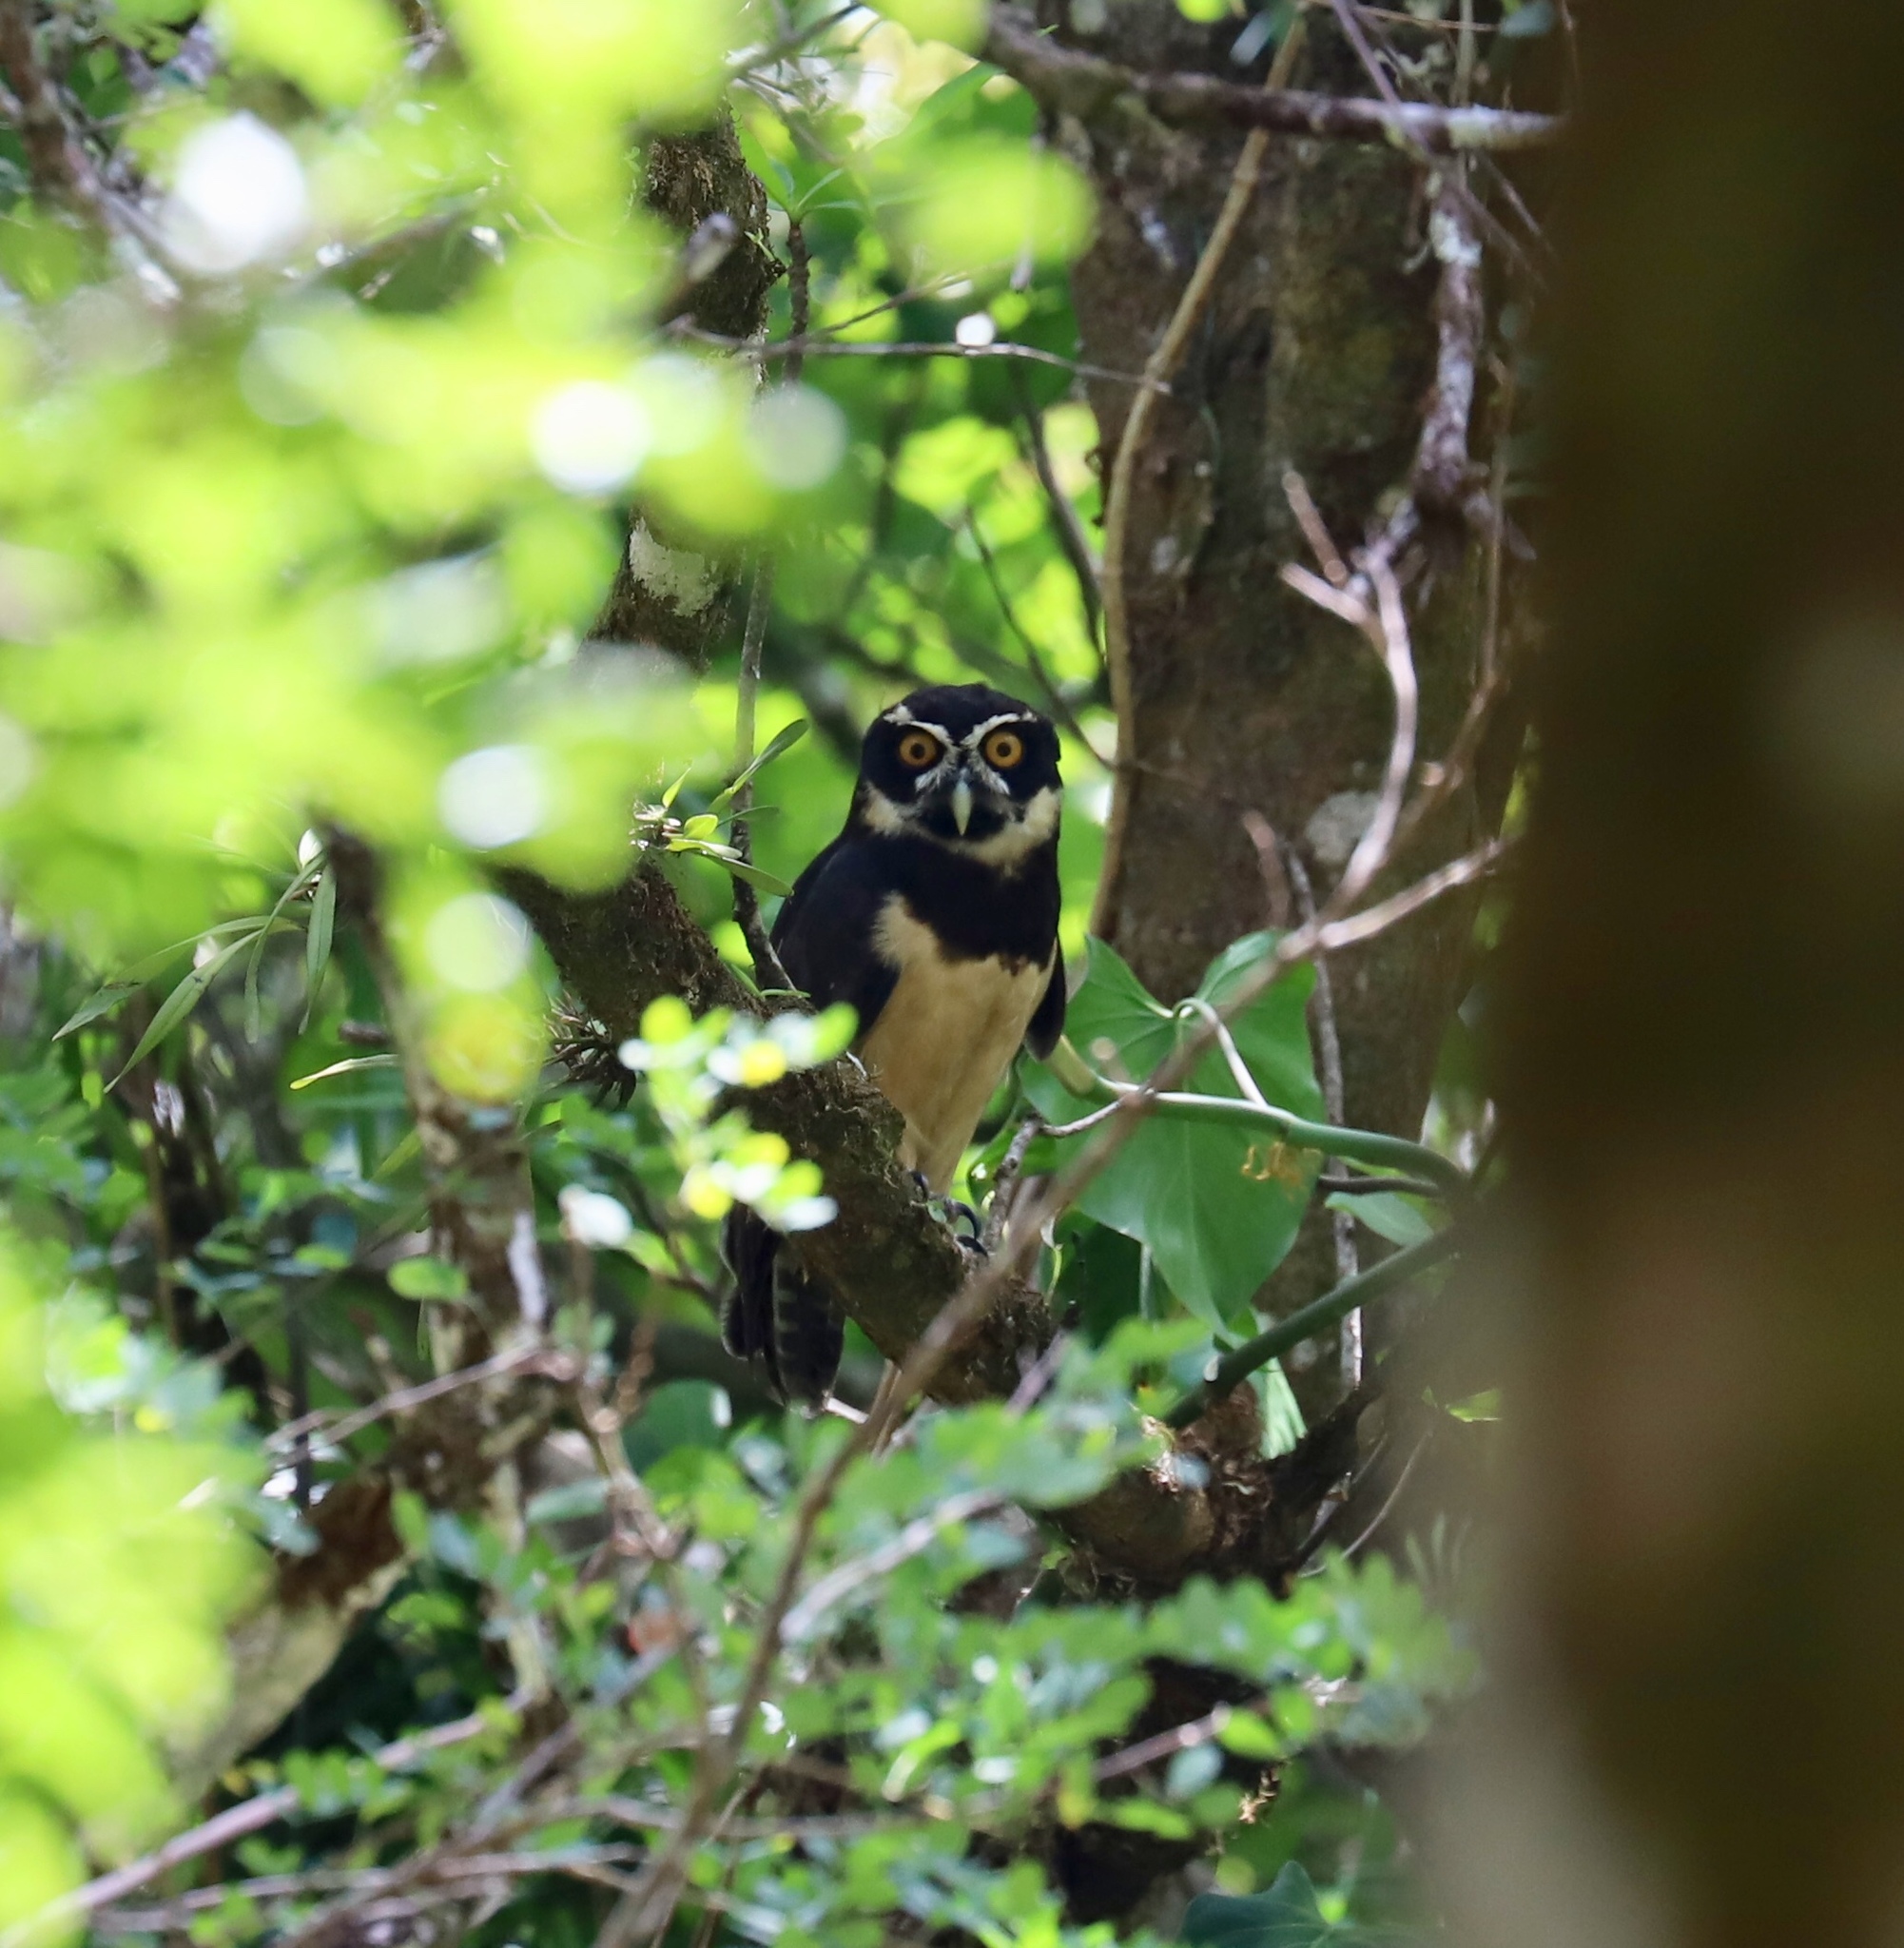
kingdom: Animalia
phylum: Chordata
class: Aves
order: Strigiformes
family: Strigidae
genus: Pulsatrix
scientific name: Pulsatrix perspicillata
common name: Spectacled owl
